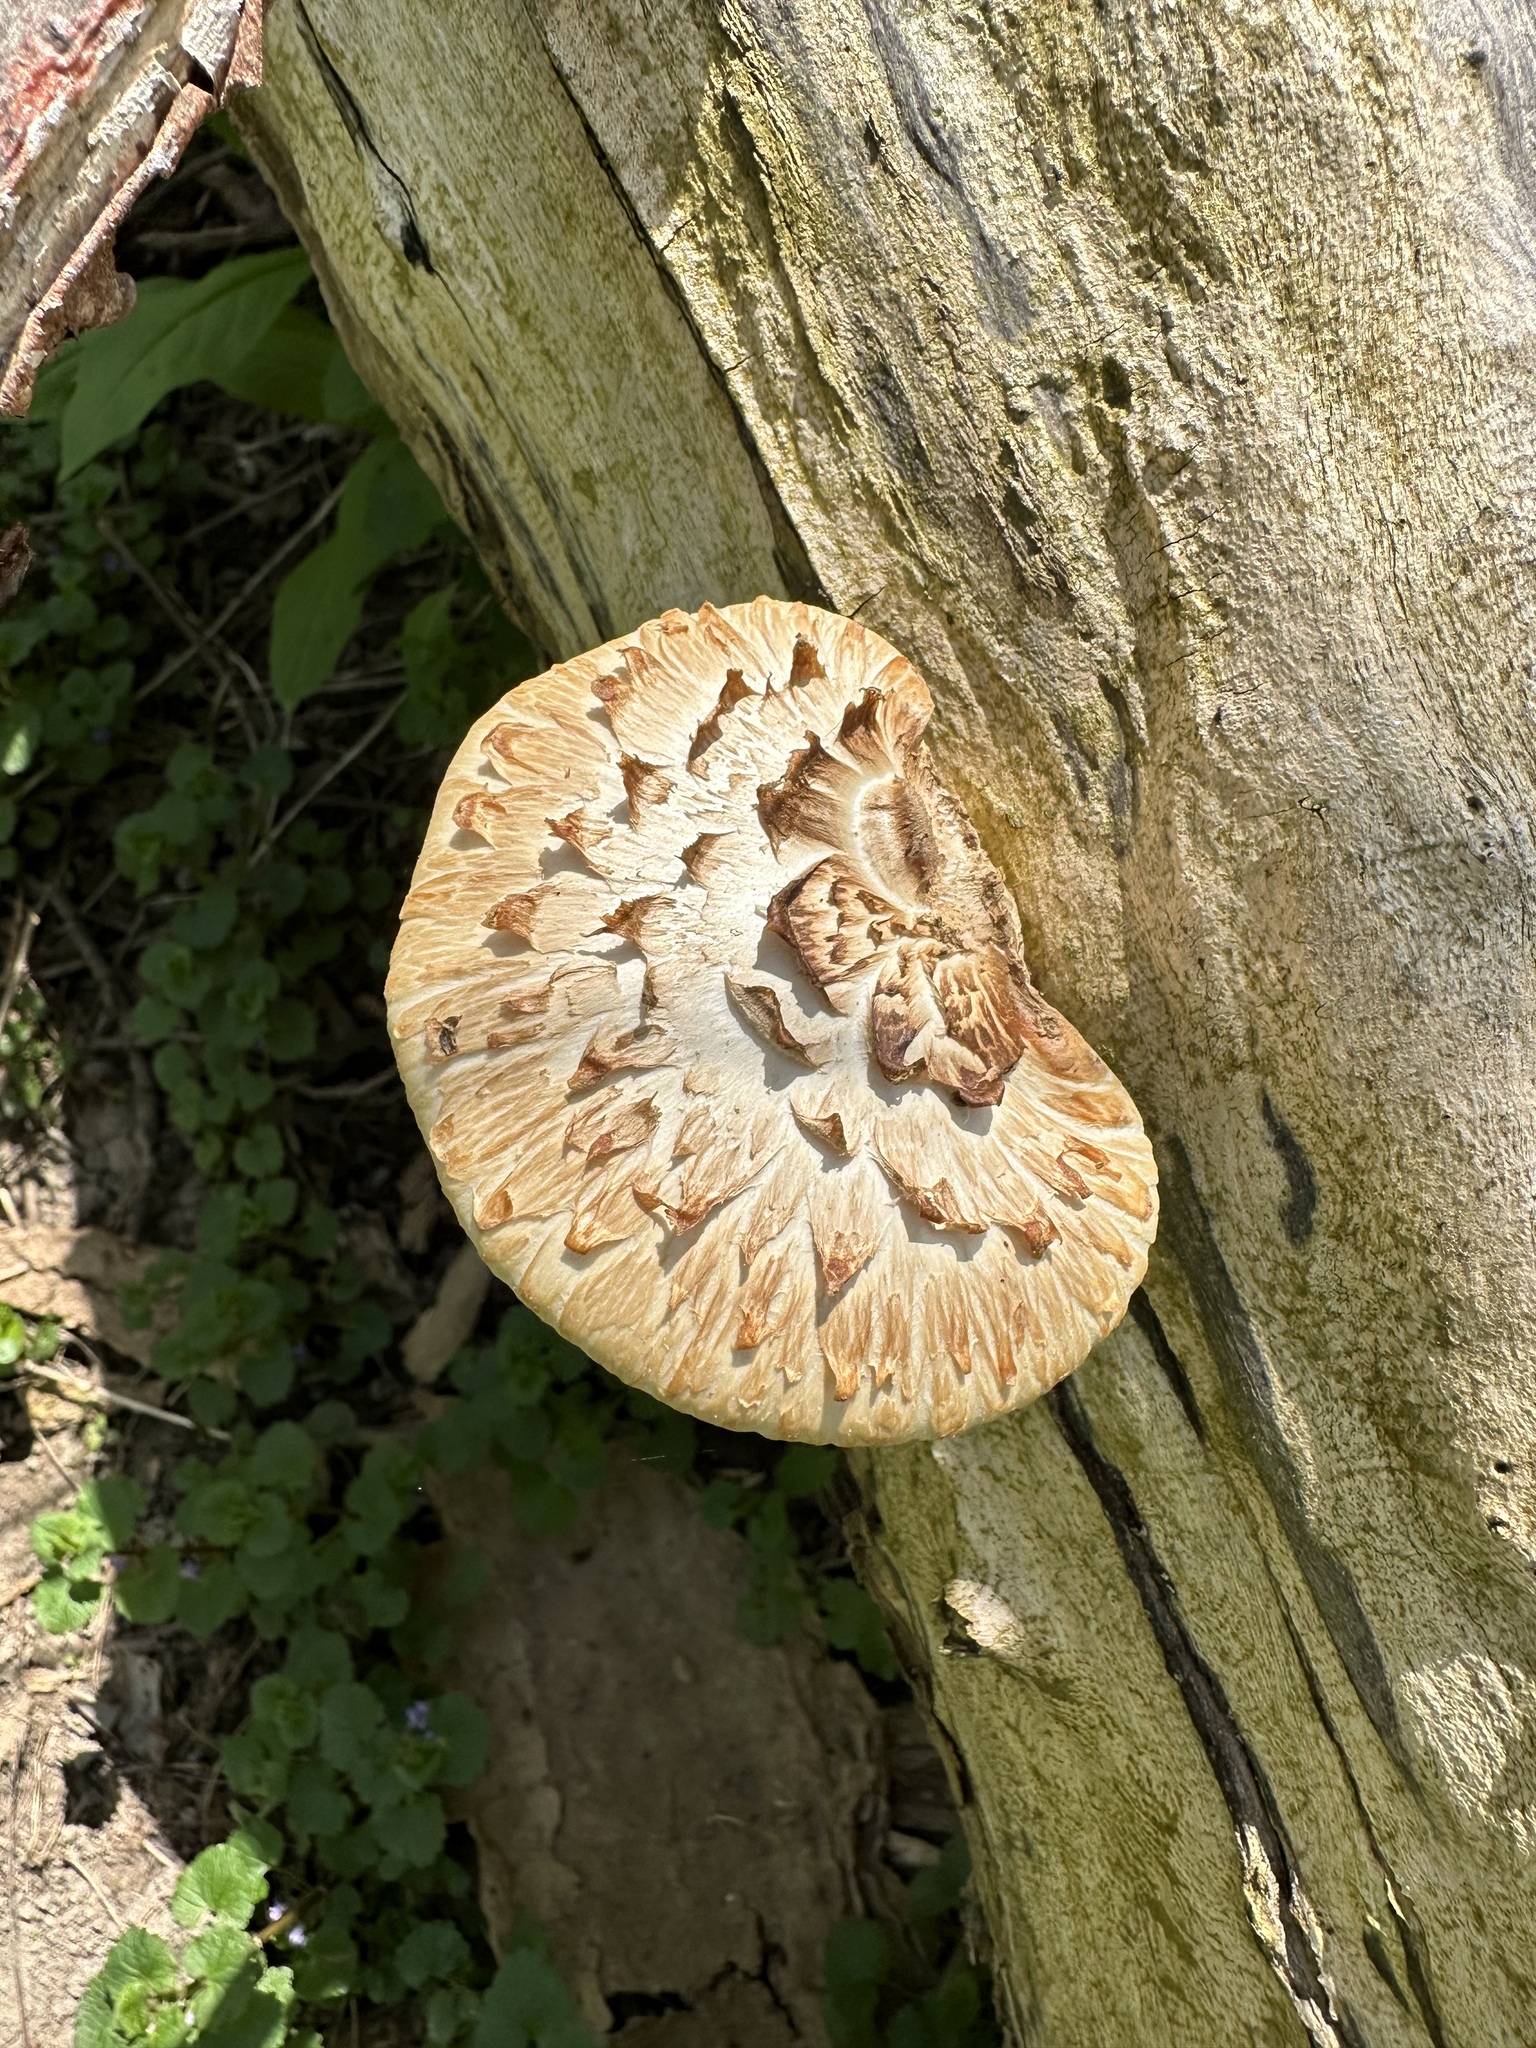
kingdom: Fungi
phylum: Basidiomycota
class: Agaricomycetes
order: Polyporales
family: Polyporaceae
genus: Cerioporus
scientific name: Cerioporus squamosus
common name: Dryad's saddle
